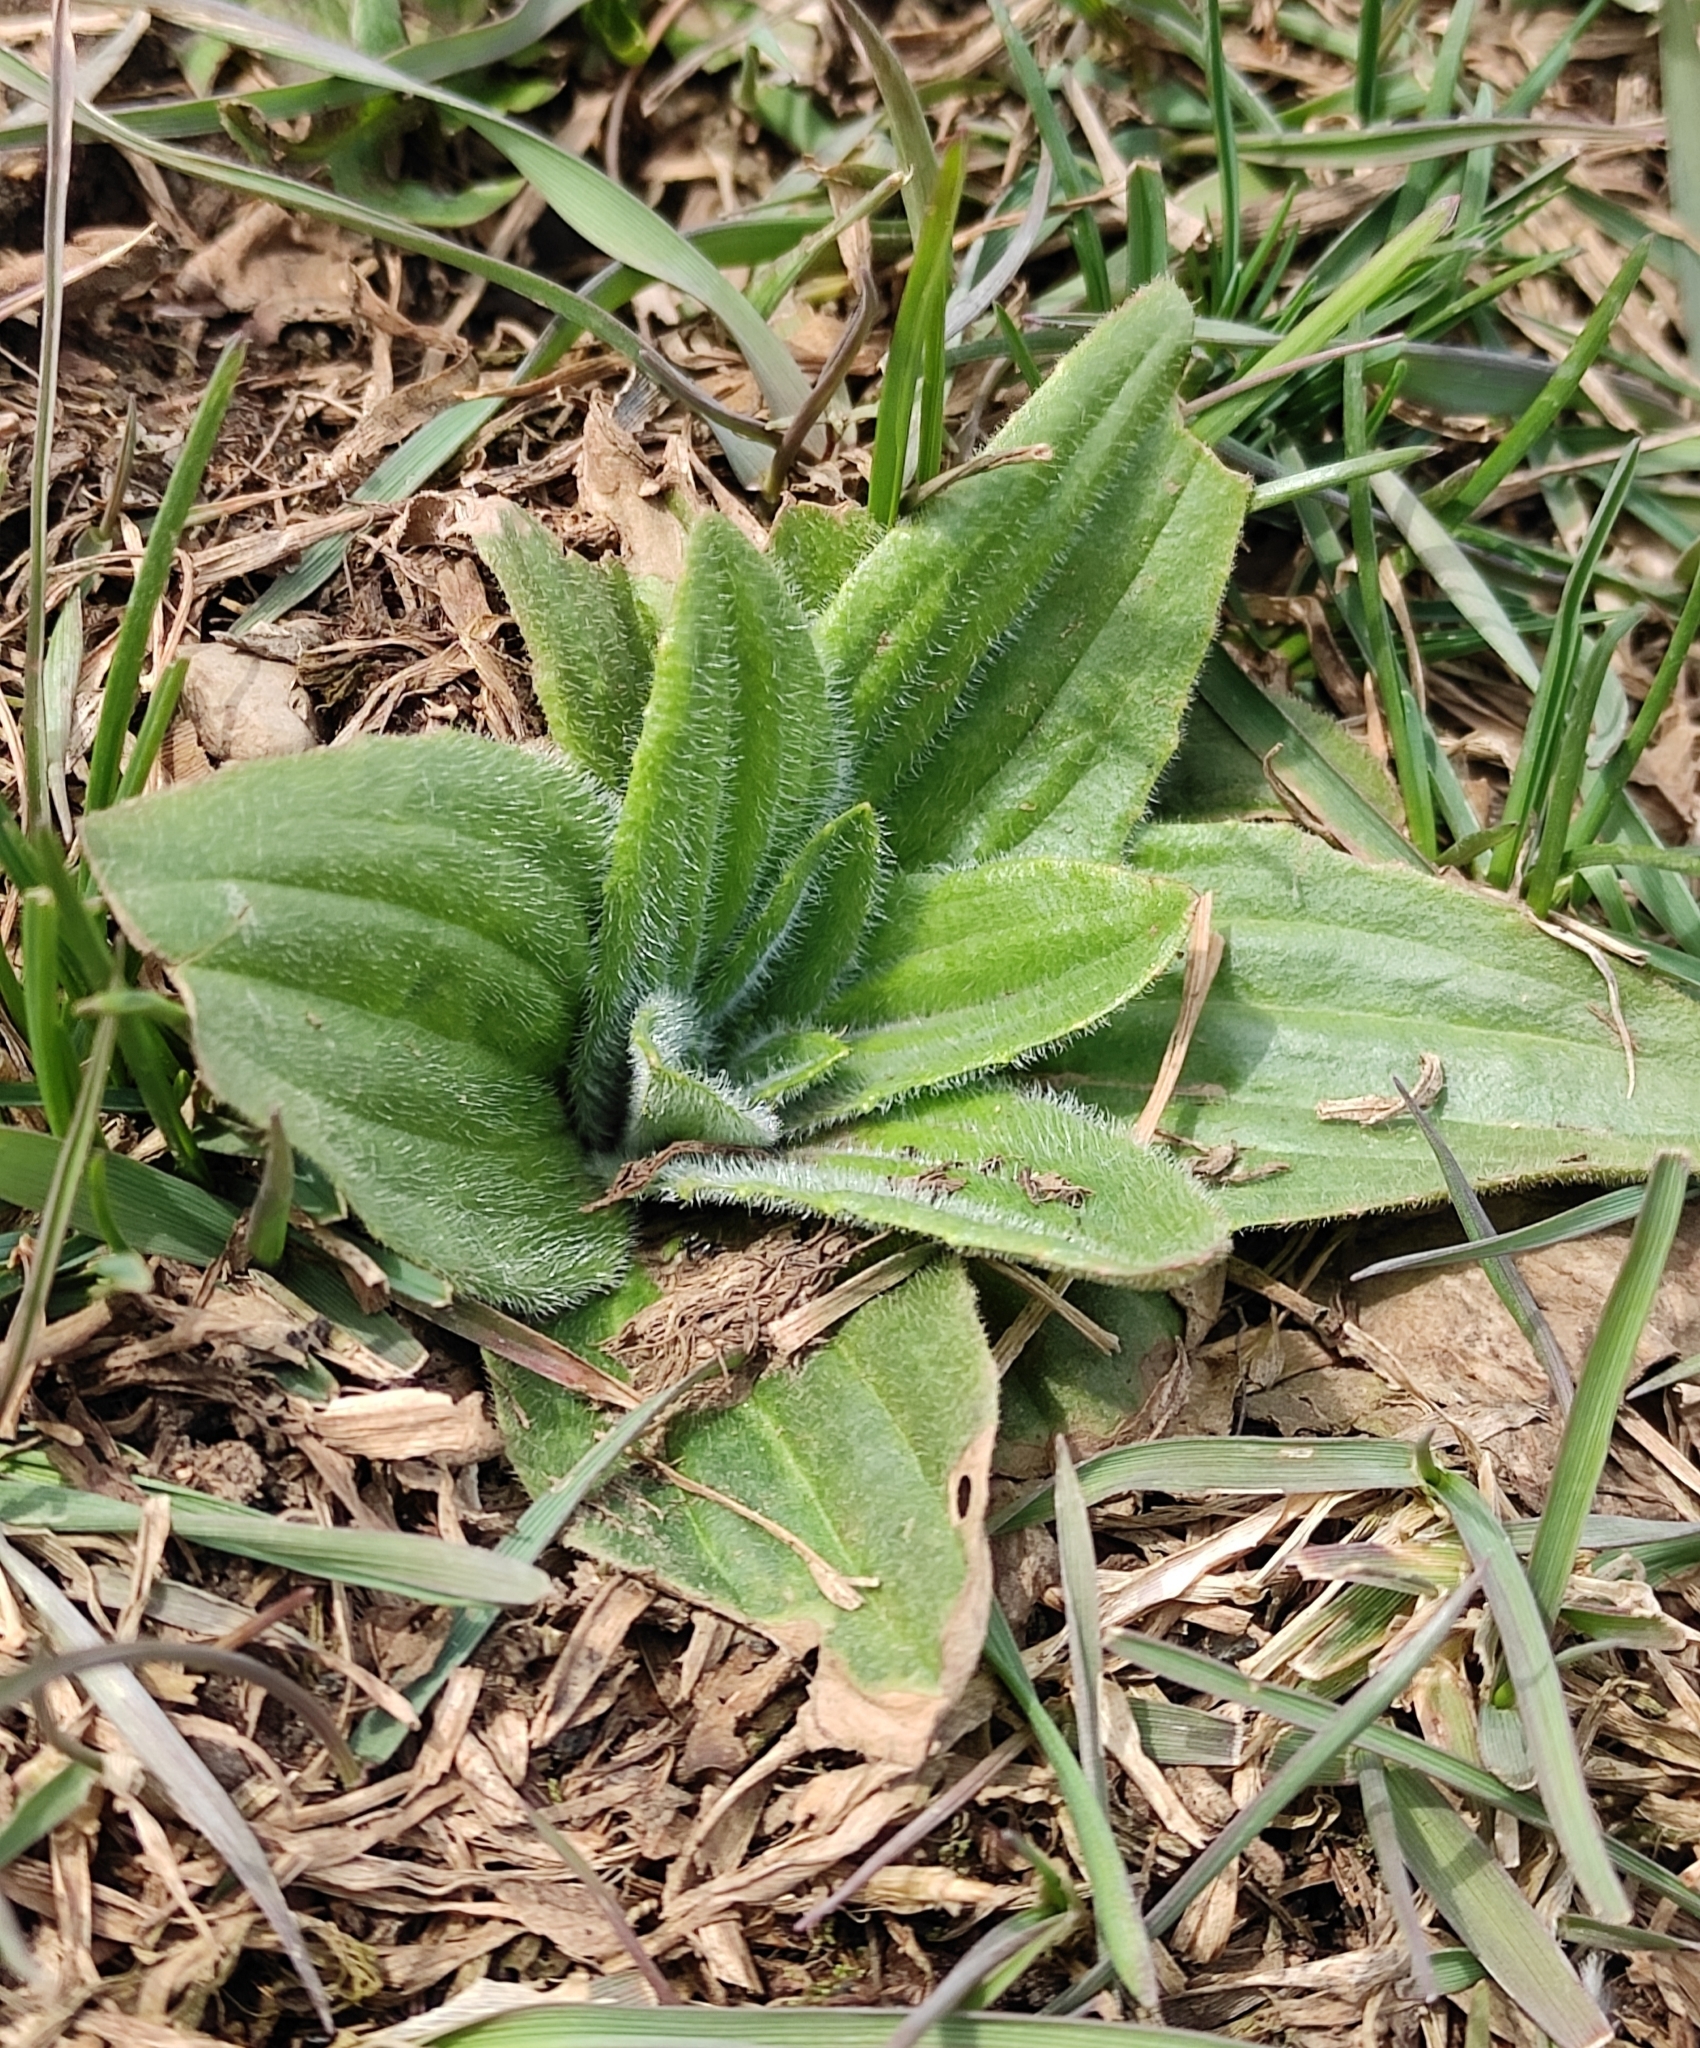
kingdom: Plantae
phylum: Tracheophyta
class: Magnoliopsida
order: Lamiales
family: Plantaginaceae
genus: Plantago
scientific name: Plantago media
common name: Hoary plantain
